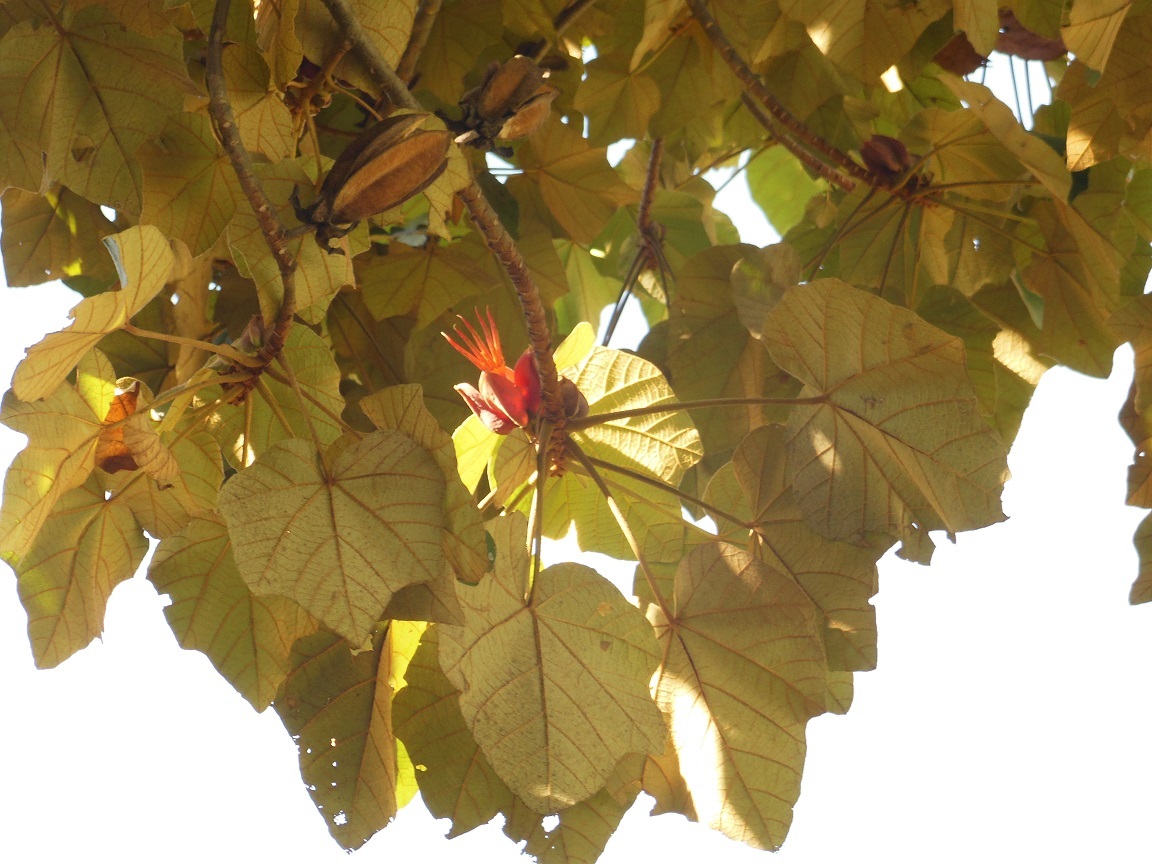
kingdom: Plantae
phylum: Tracheophyta
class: Magnoliopsida
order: Malvales
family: Malvaceae
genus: Chiranthodendron
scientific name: Chiranthodendron pentadactylon
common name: Mexican-hat-plant
